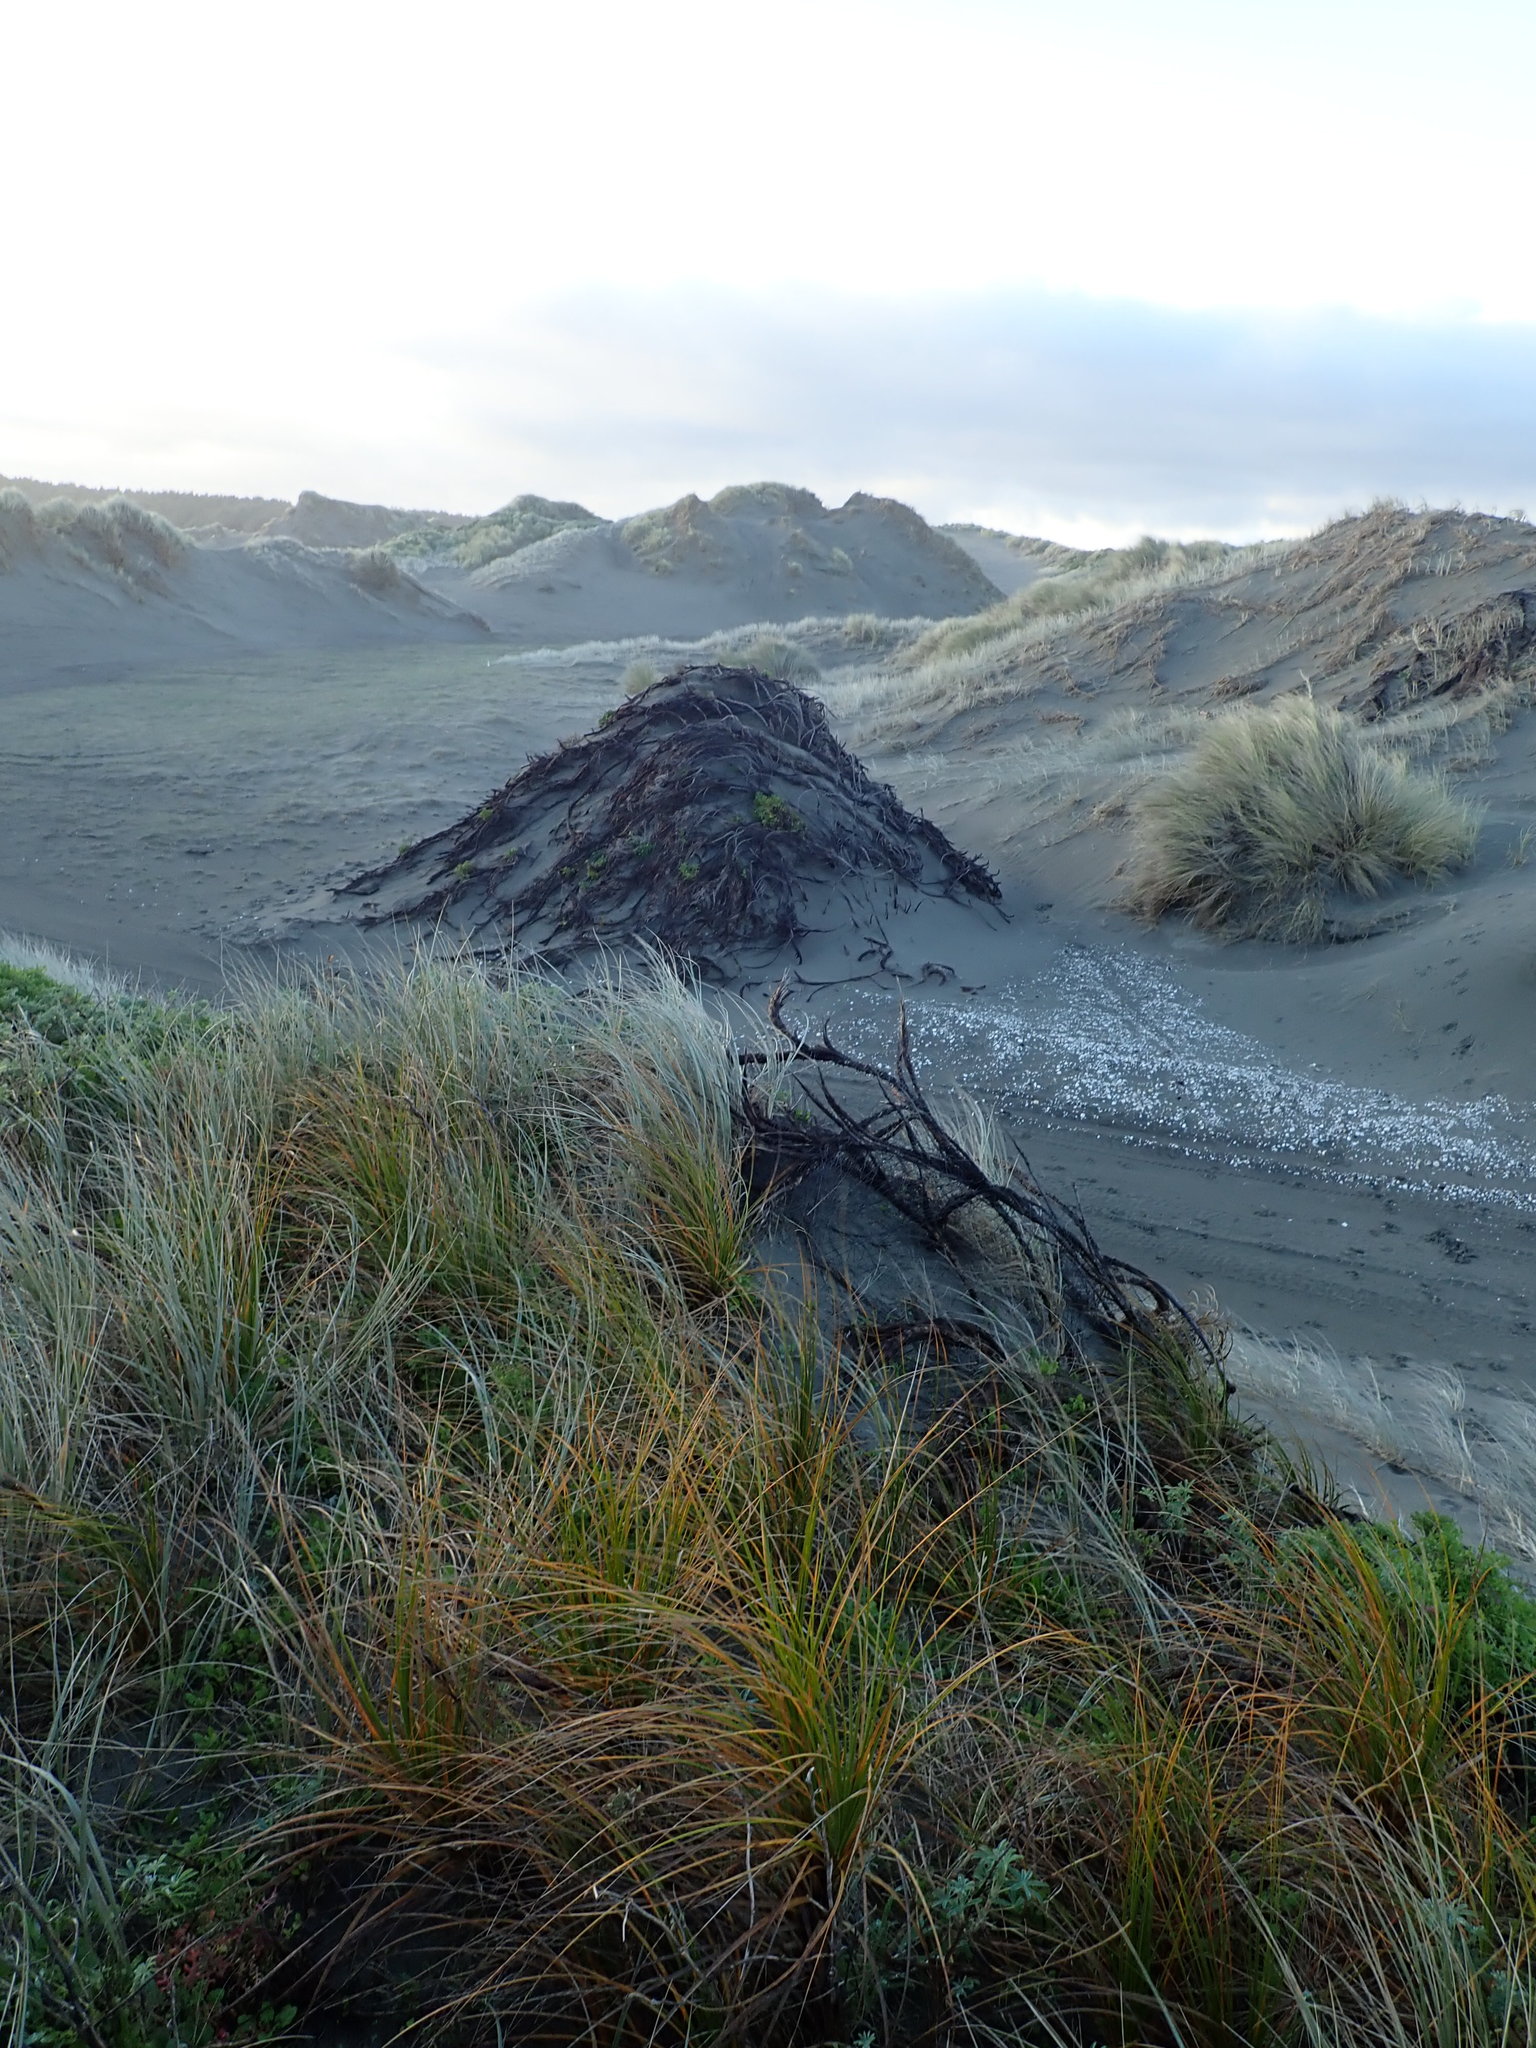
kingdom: Plantae
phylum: Tracheophyta
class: Liliopsida
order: Poales
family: Cyperaceae
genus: Ficinia
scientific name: Ficinia spiralis
